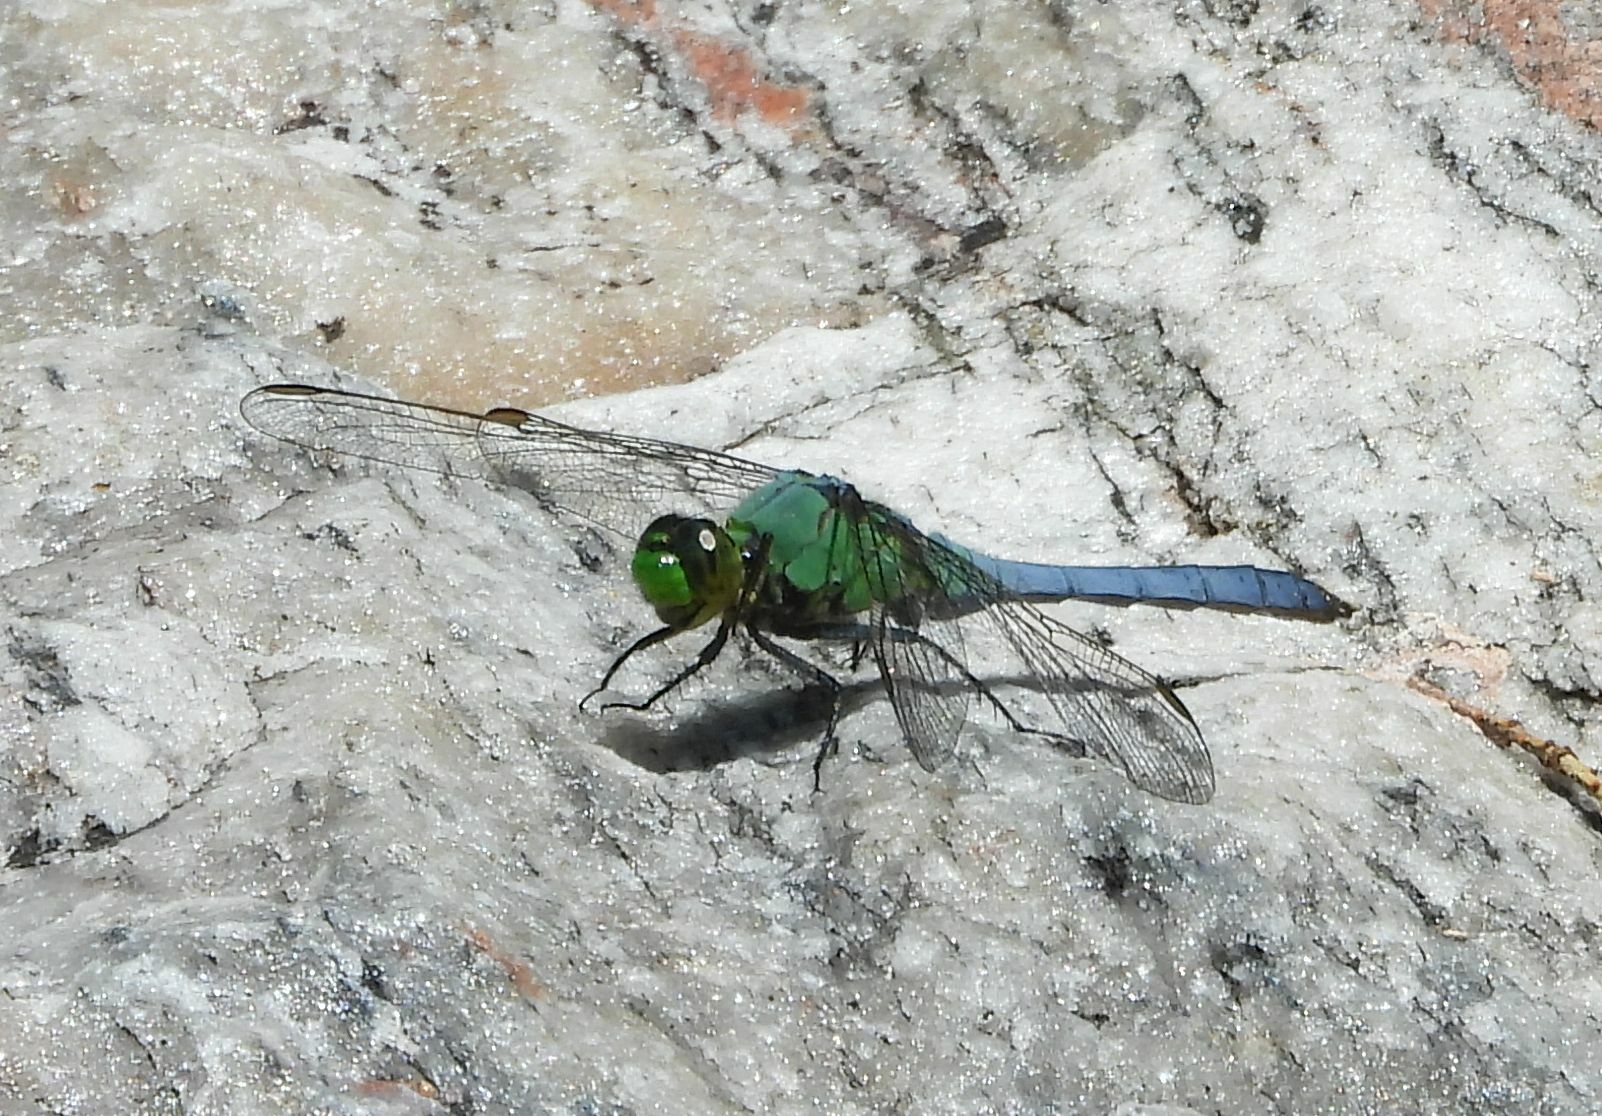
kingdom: Animalia
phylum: Arthropoda
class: Insecta
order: Odonata
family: Libellulidae
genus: Erythemis
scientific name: Erythemis simplicicollis
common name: Eastern pondhawk
